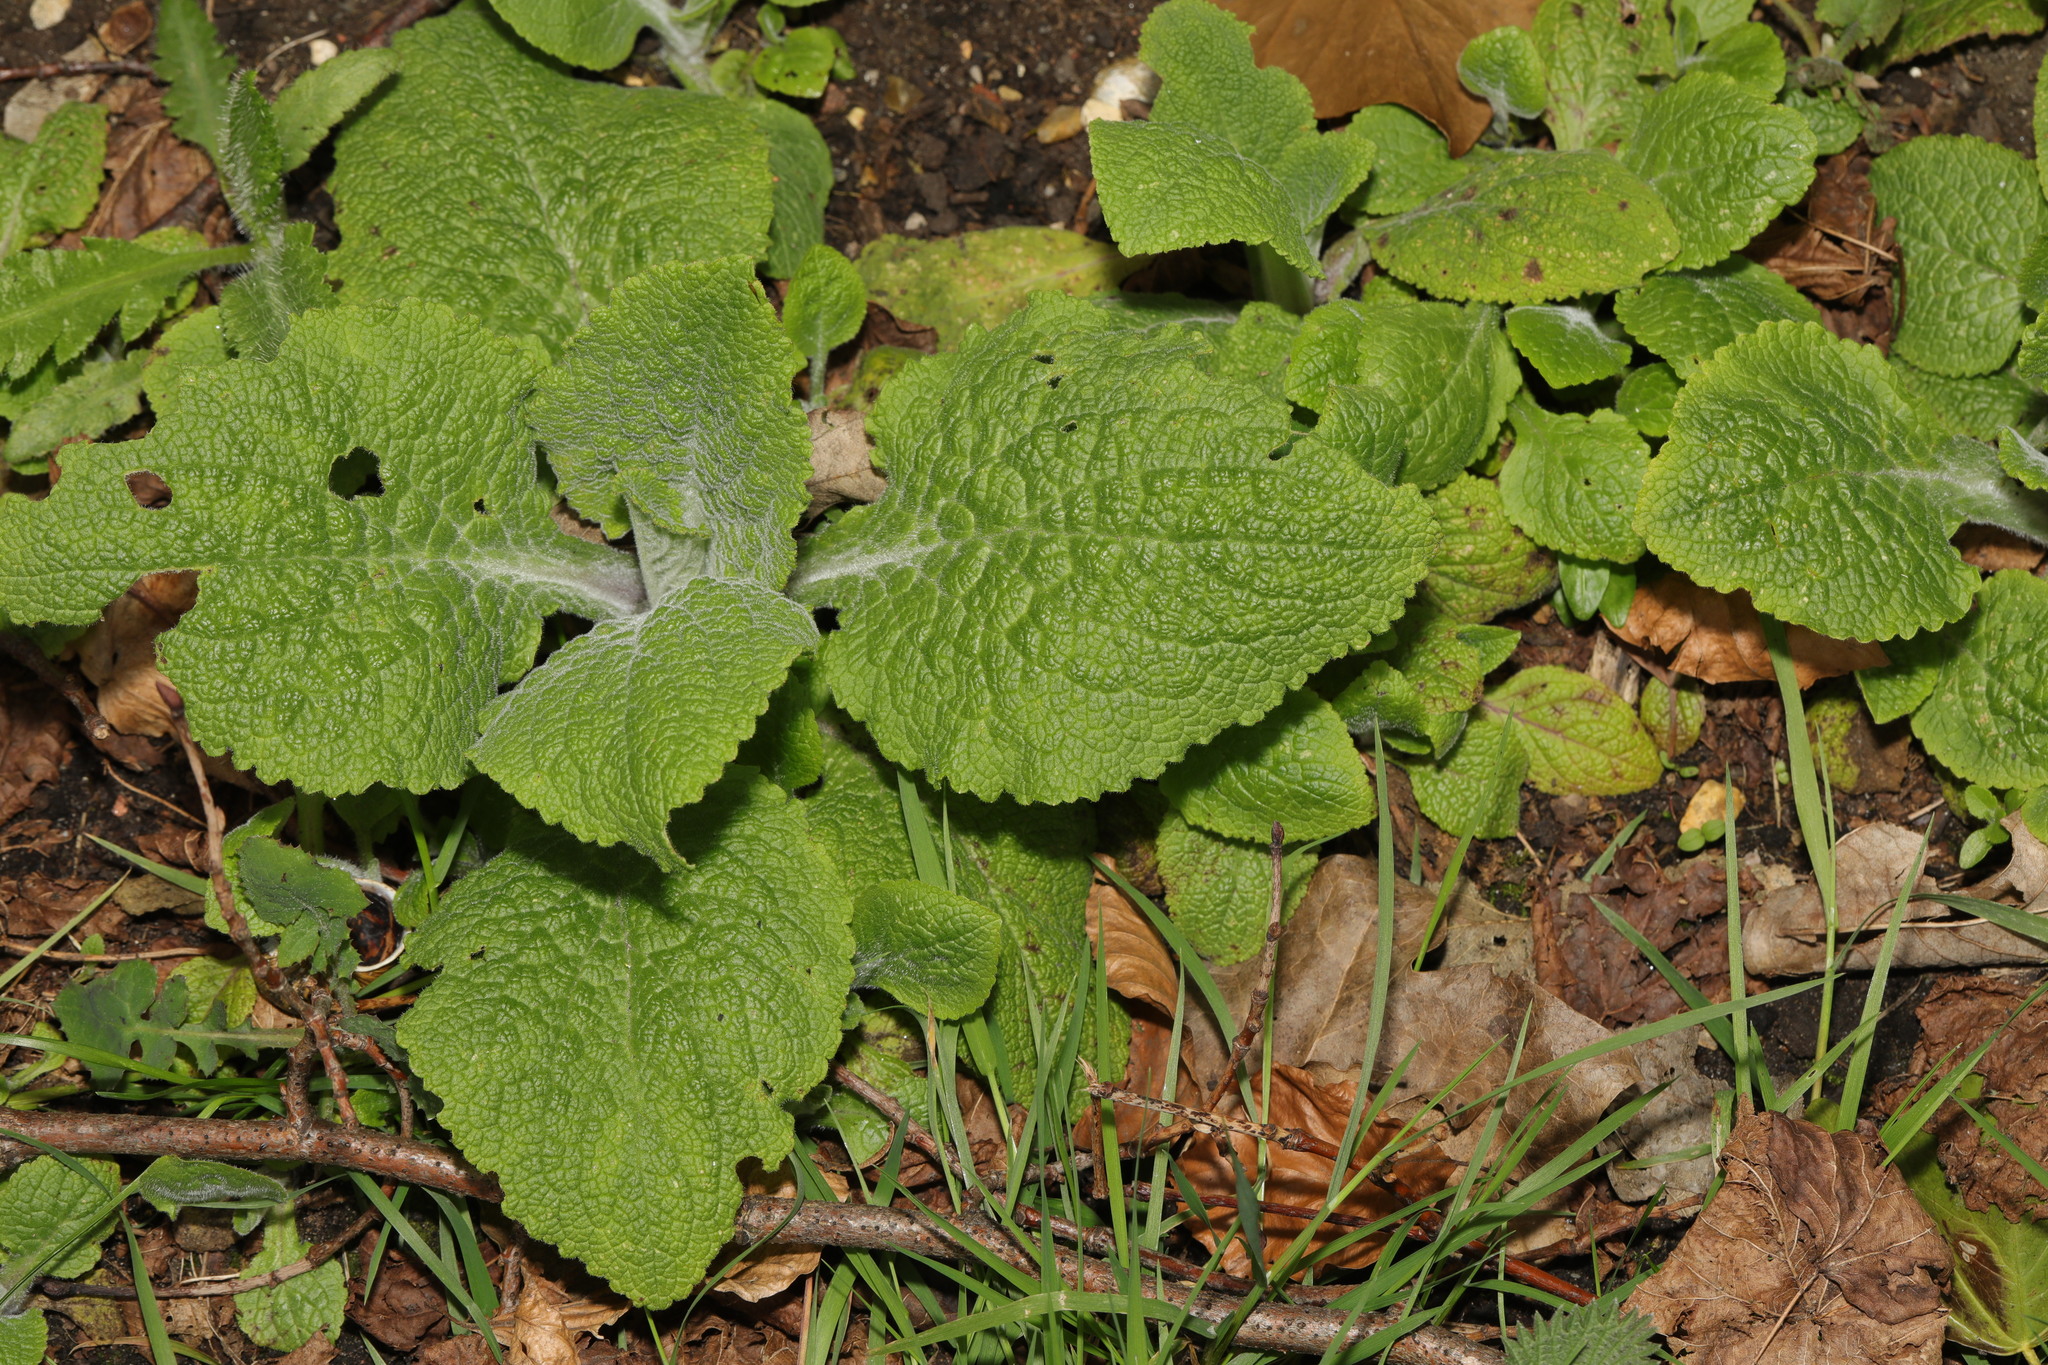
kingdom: Plantae
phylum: Tracheophyta
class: Magnoliopsida
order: Lamiales
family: Plantaginaceae
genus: Digitalis
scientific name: Digitalis purpurea
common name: Foxglove
